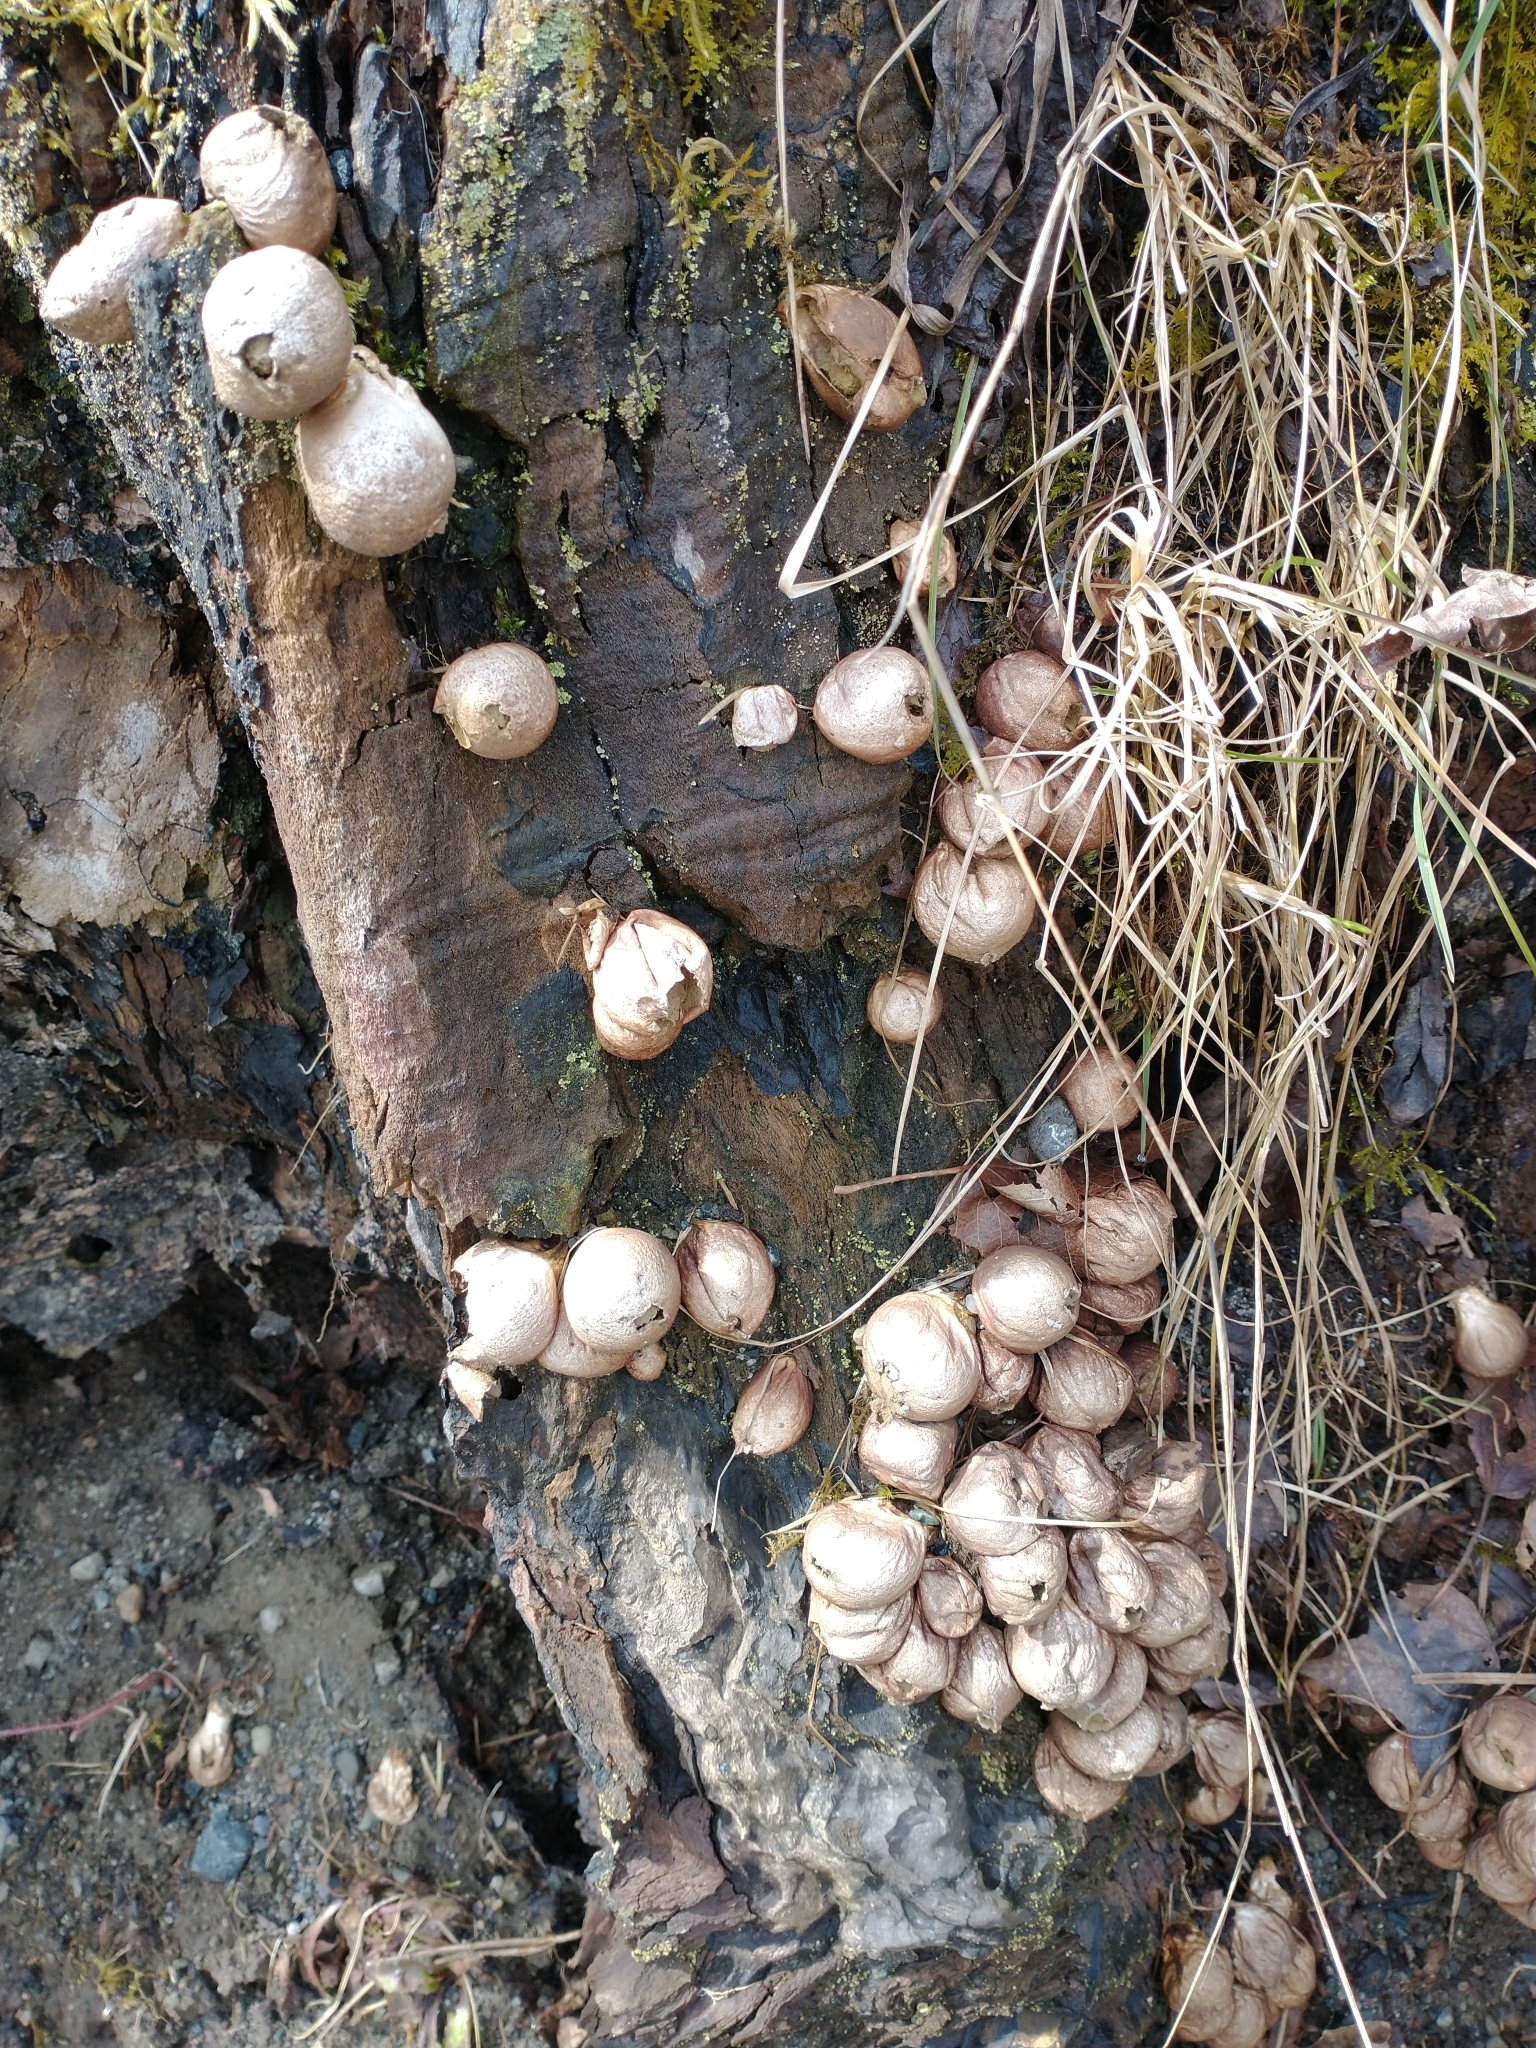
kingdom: Fungi
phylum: Basidiomycota
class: Agaricomycetes
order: Agaricales
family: Lycoperdaceae
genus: Apioperdon
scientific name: Apioperdon pyriforme
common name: Pear-shaped puffball
